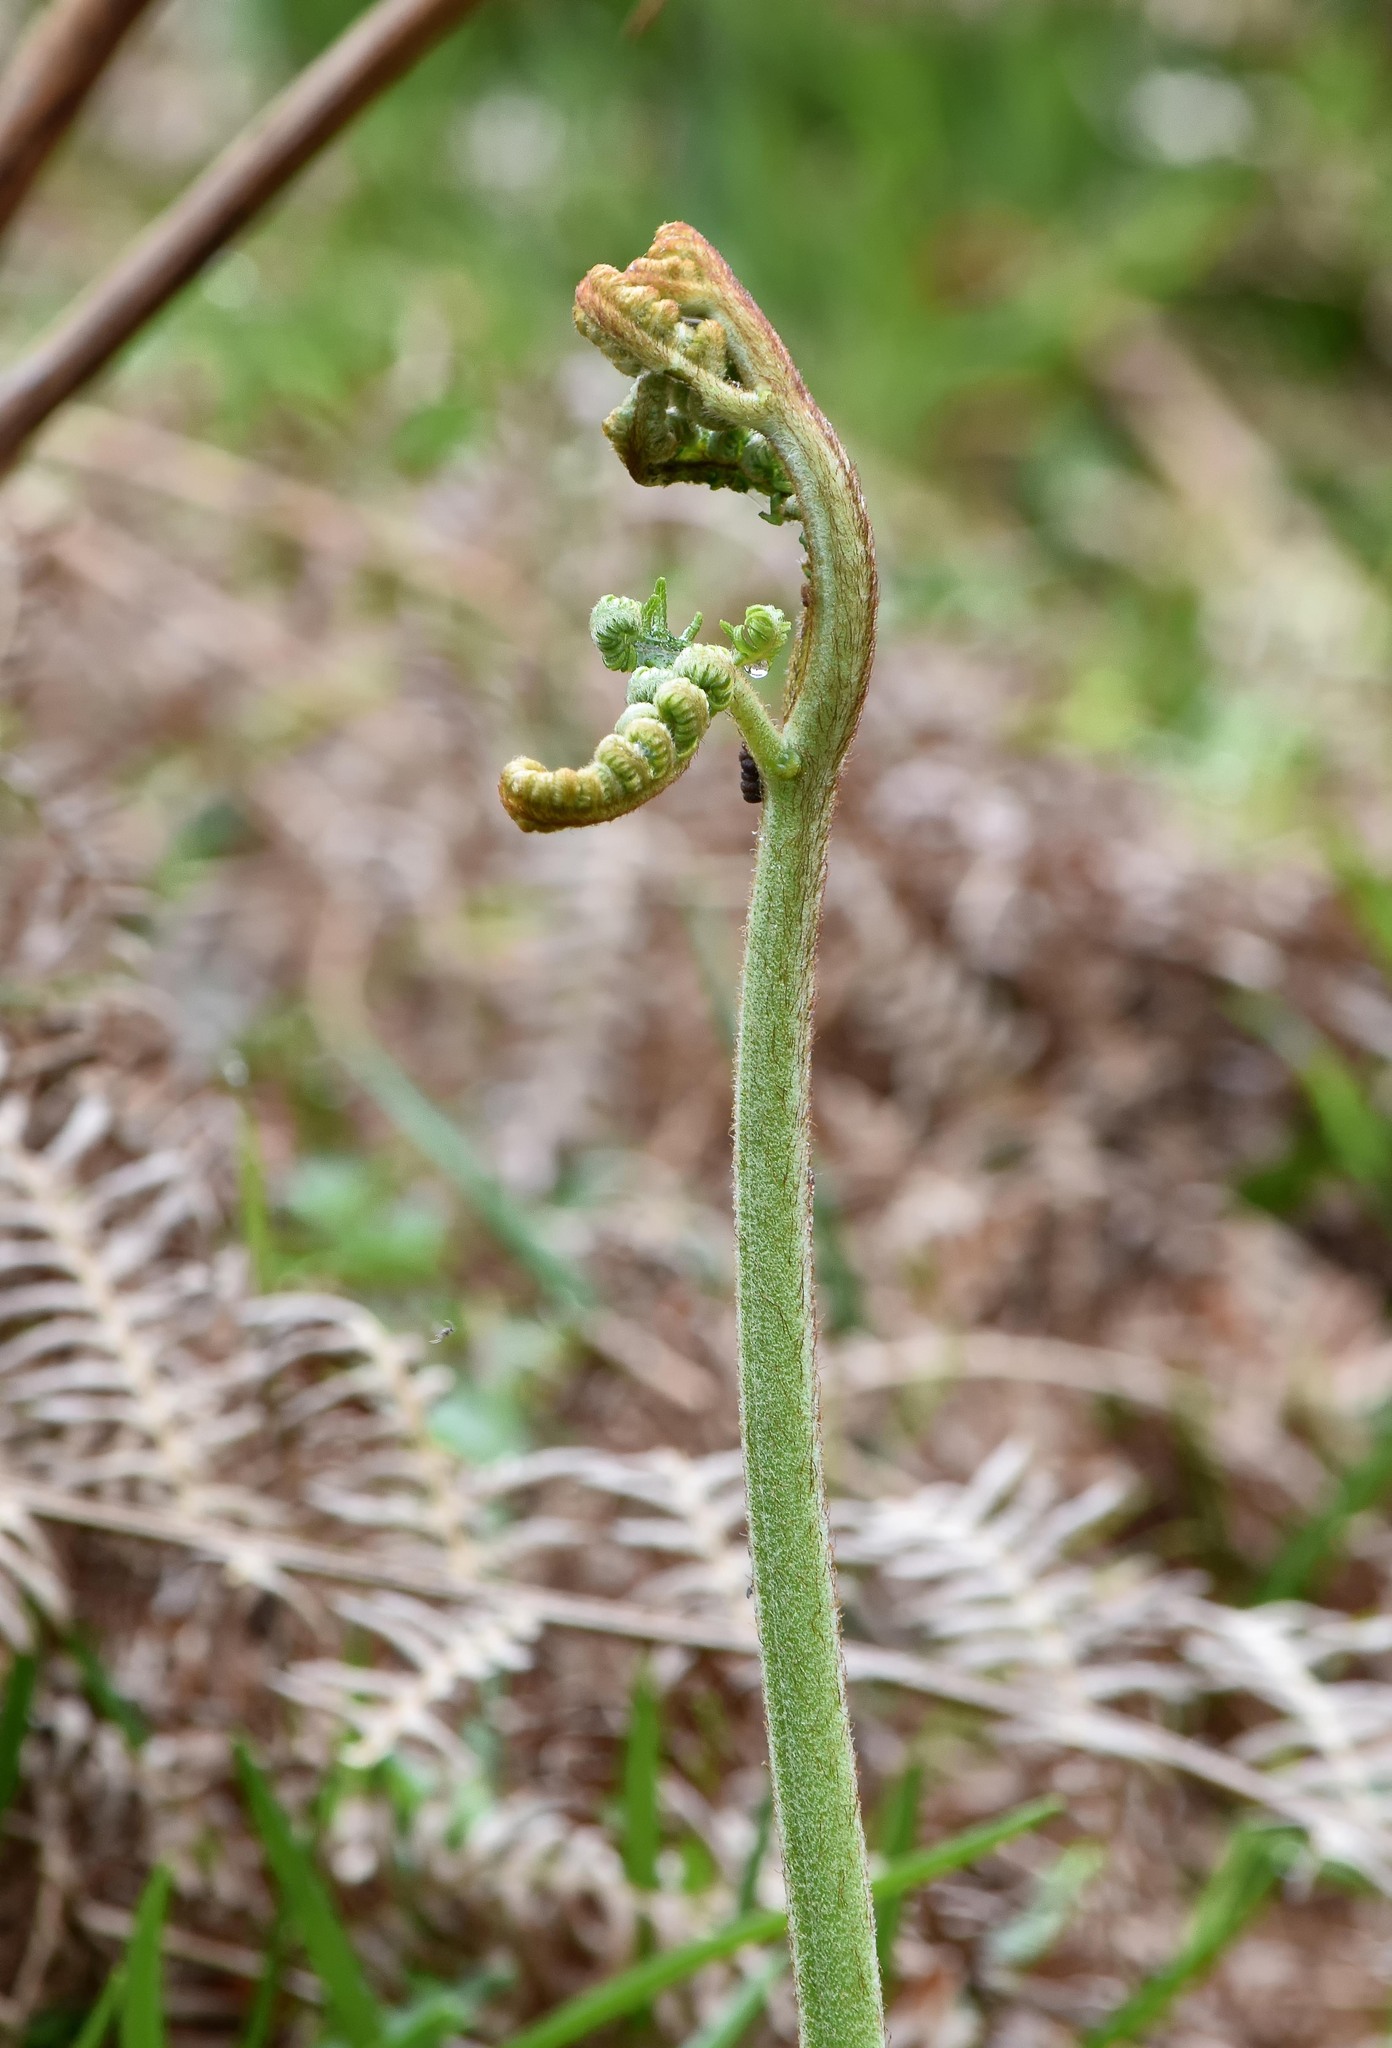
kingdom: Plantae
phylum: Tracheophyta
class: Polypodiopsida
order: Polypodiales
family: Dennstaedtiaceae
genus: Pteridium
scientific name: Pteridium aquilinum
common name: Bracken
